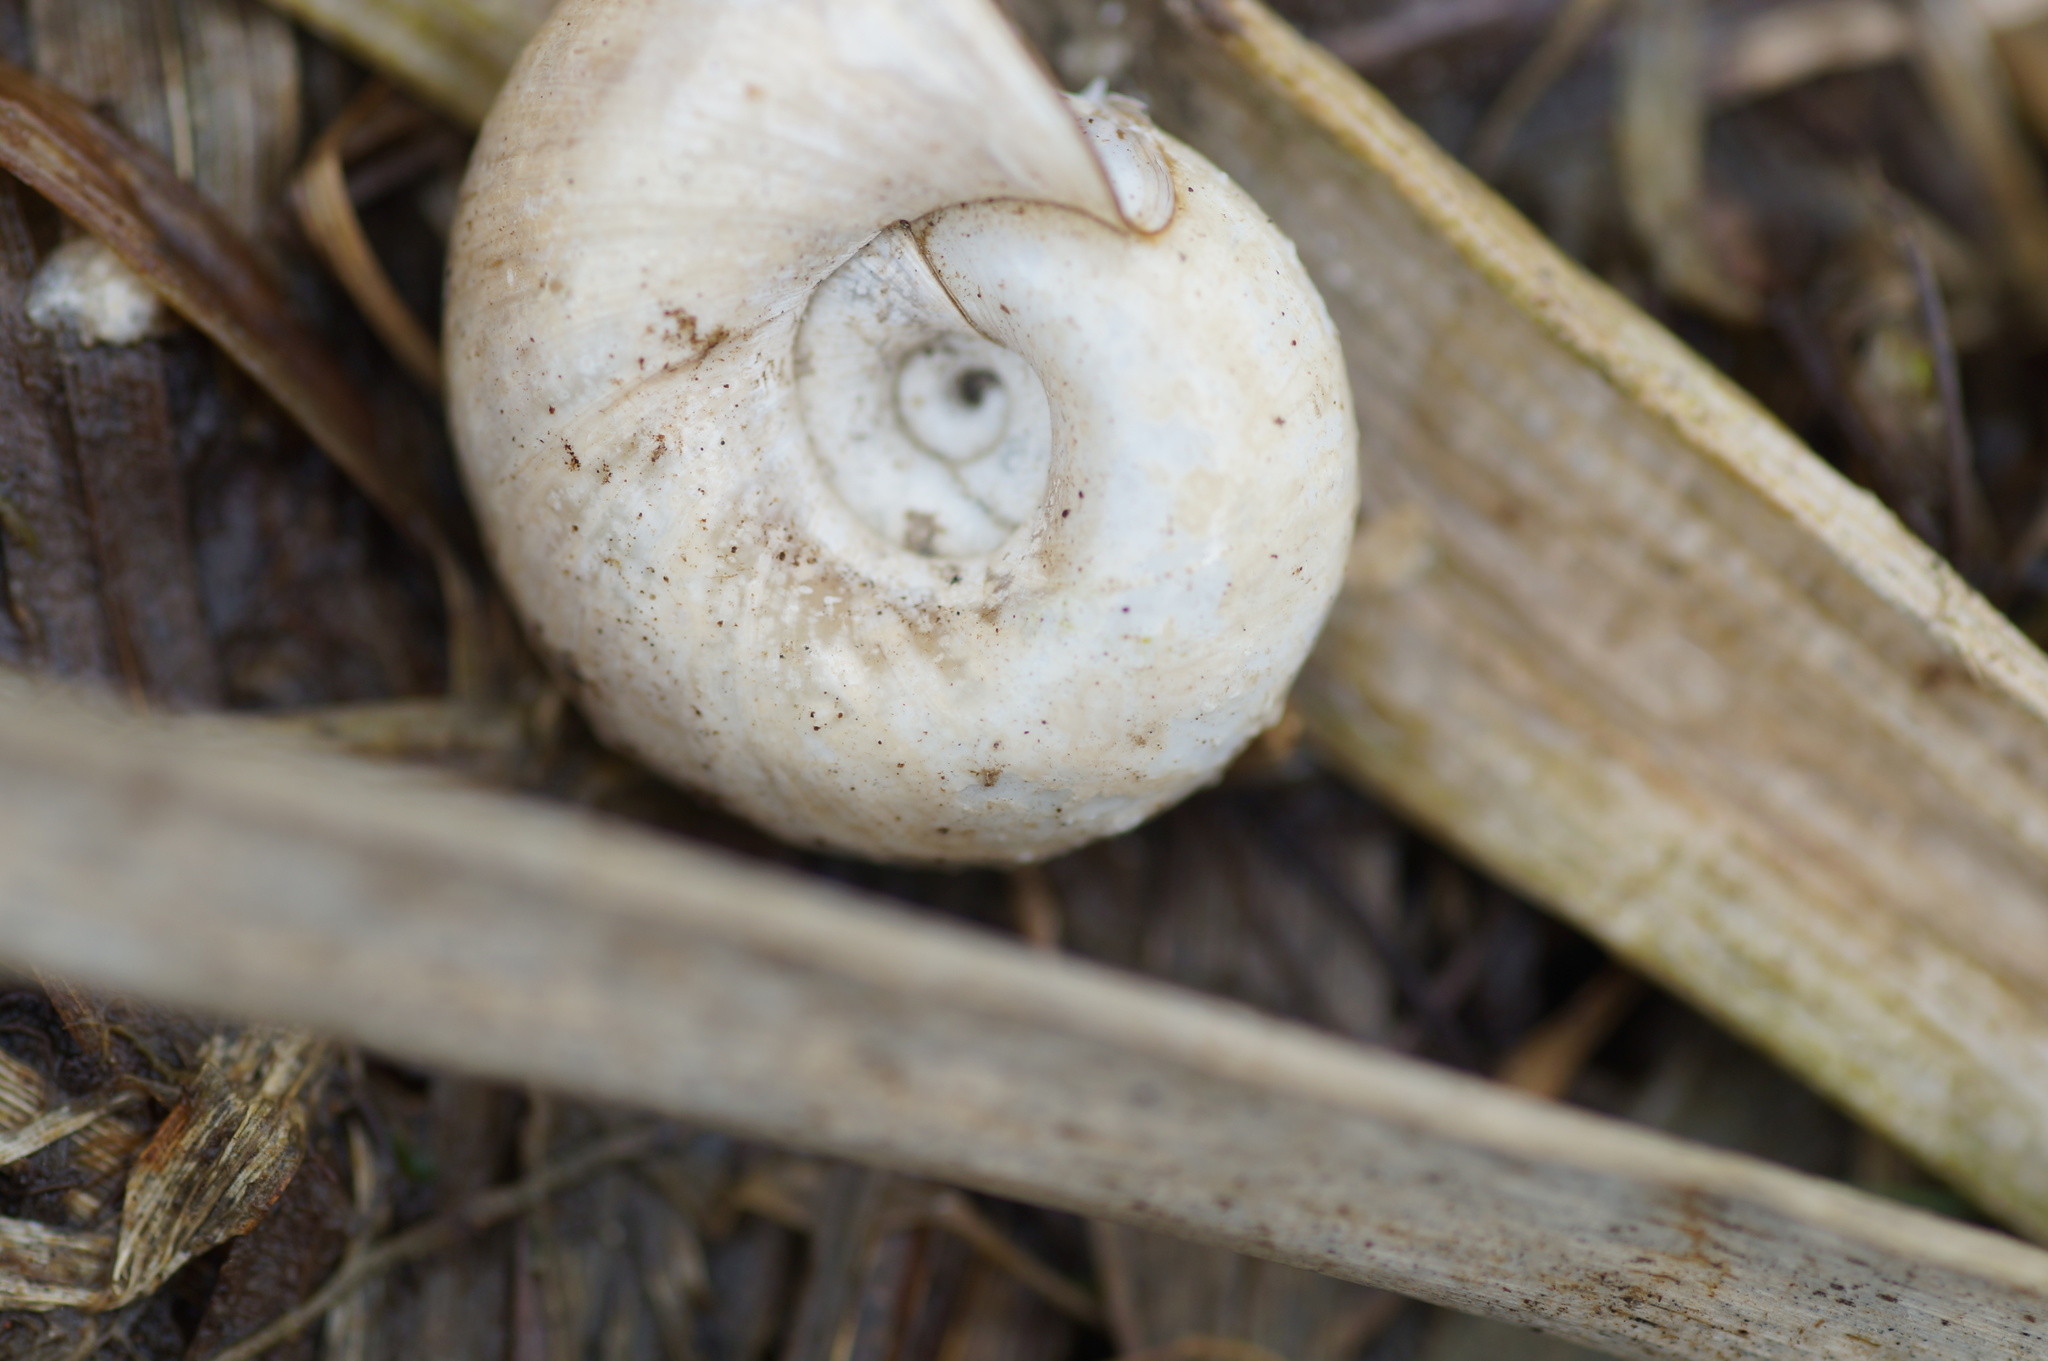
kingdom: Animalia
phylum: Mollusca
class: Gastropoda
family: Planorbidae
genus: Planorbarius
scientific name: Planorbarius corneus
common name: Great ramshorn
